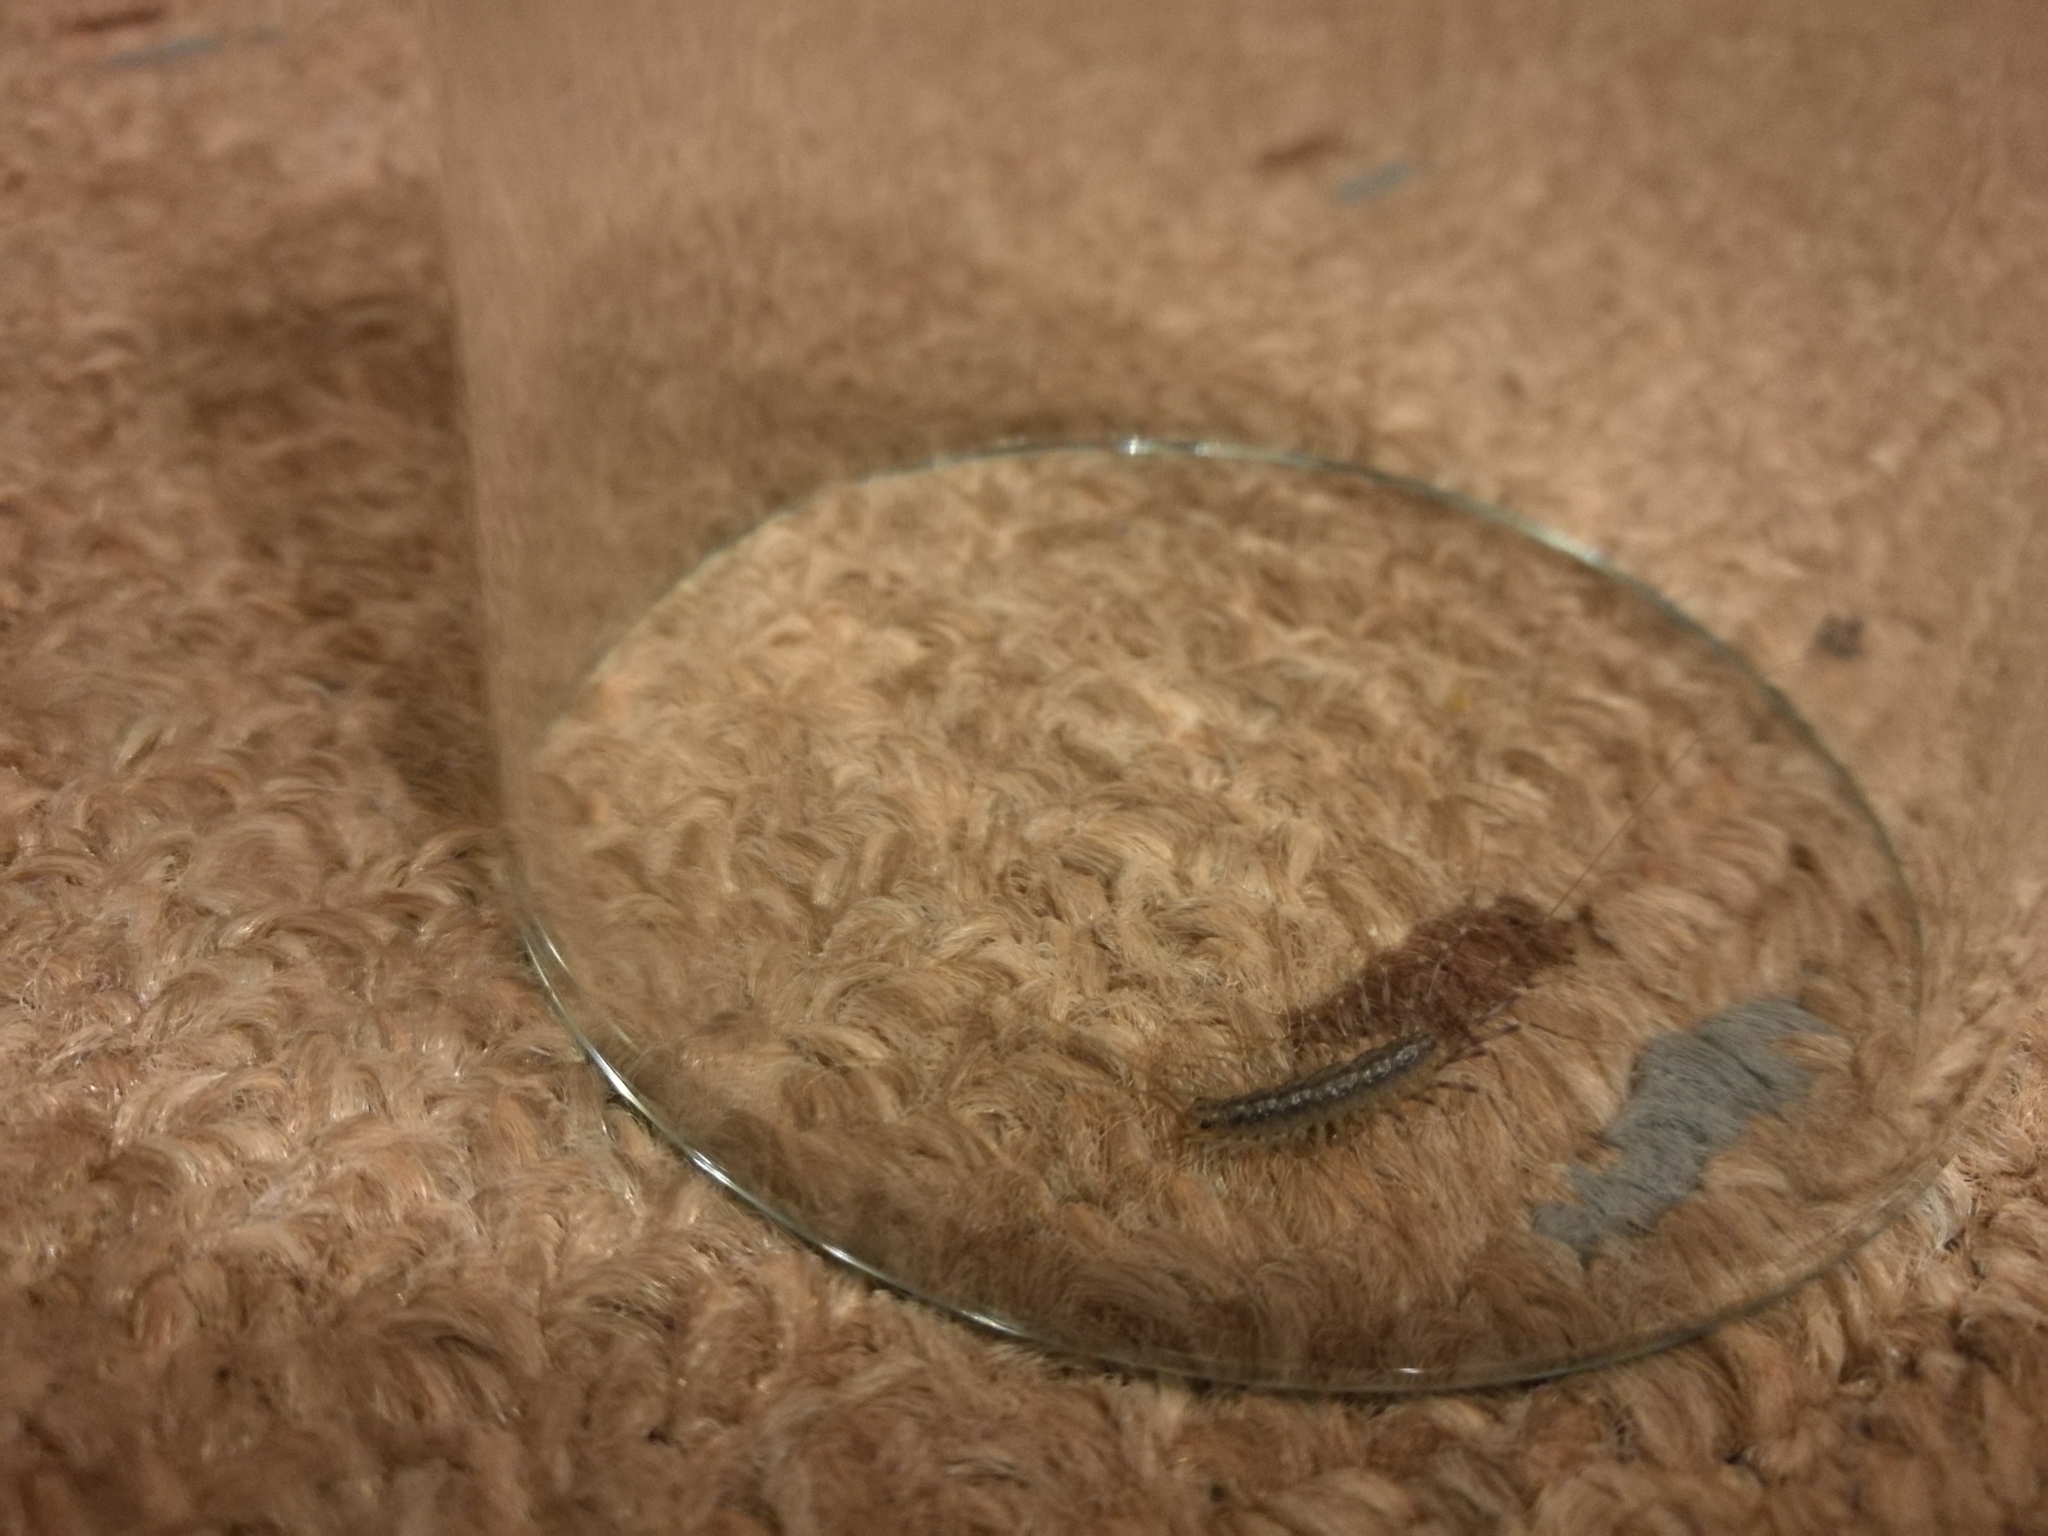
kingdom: Animalia
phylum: Arthropoda
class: Chilopoda
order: Scutigeromorpha
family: Scutigeridae
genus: Scutigera
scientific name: Scutigera coleoptrata
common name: House centipede
